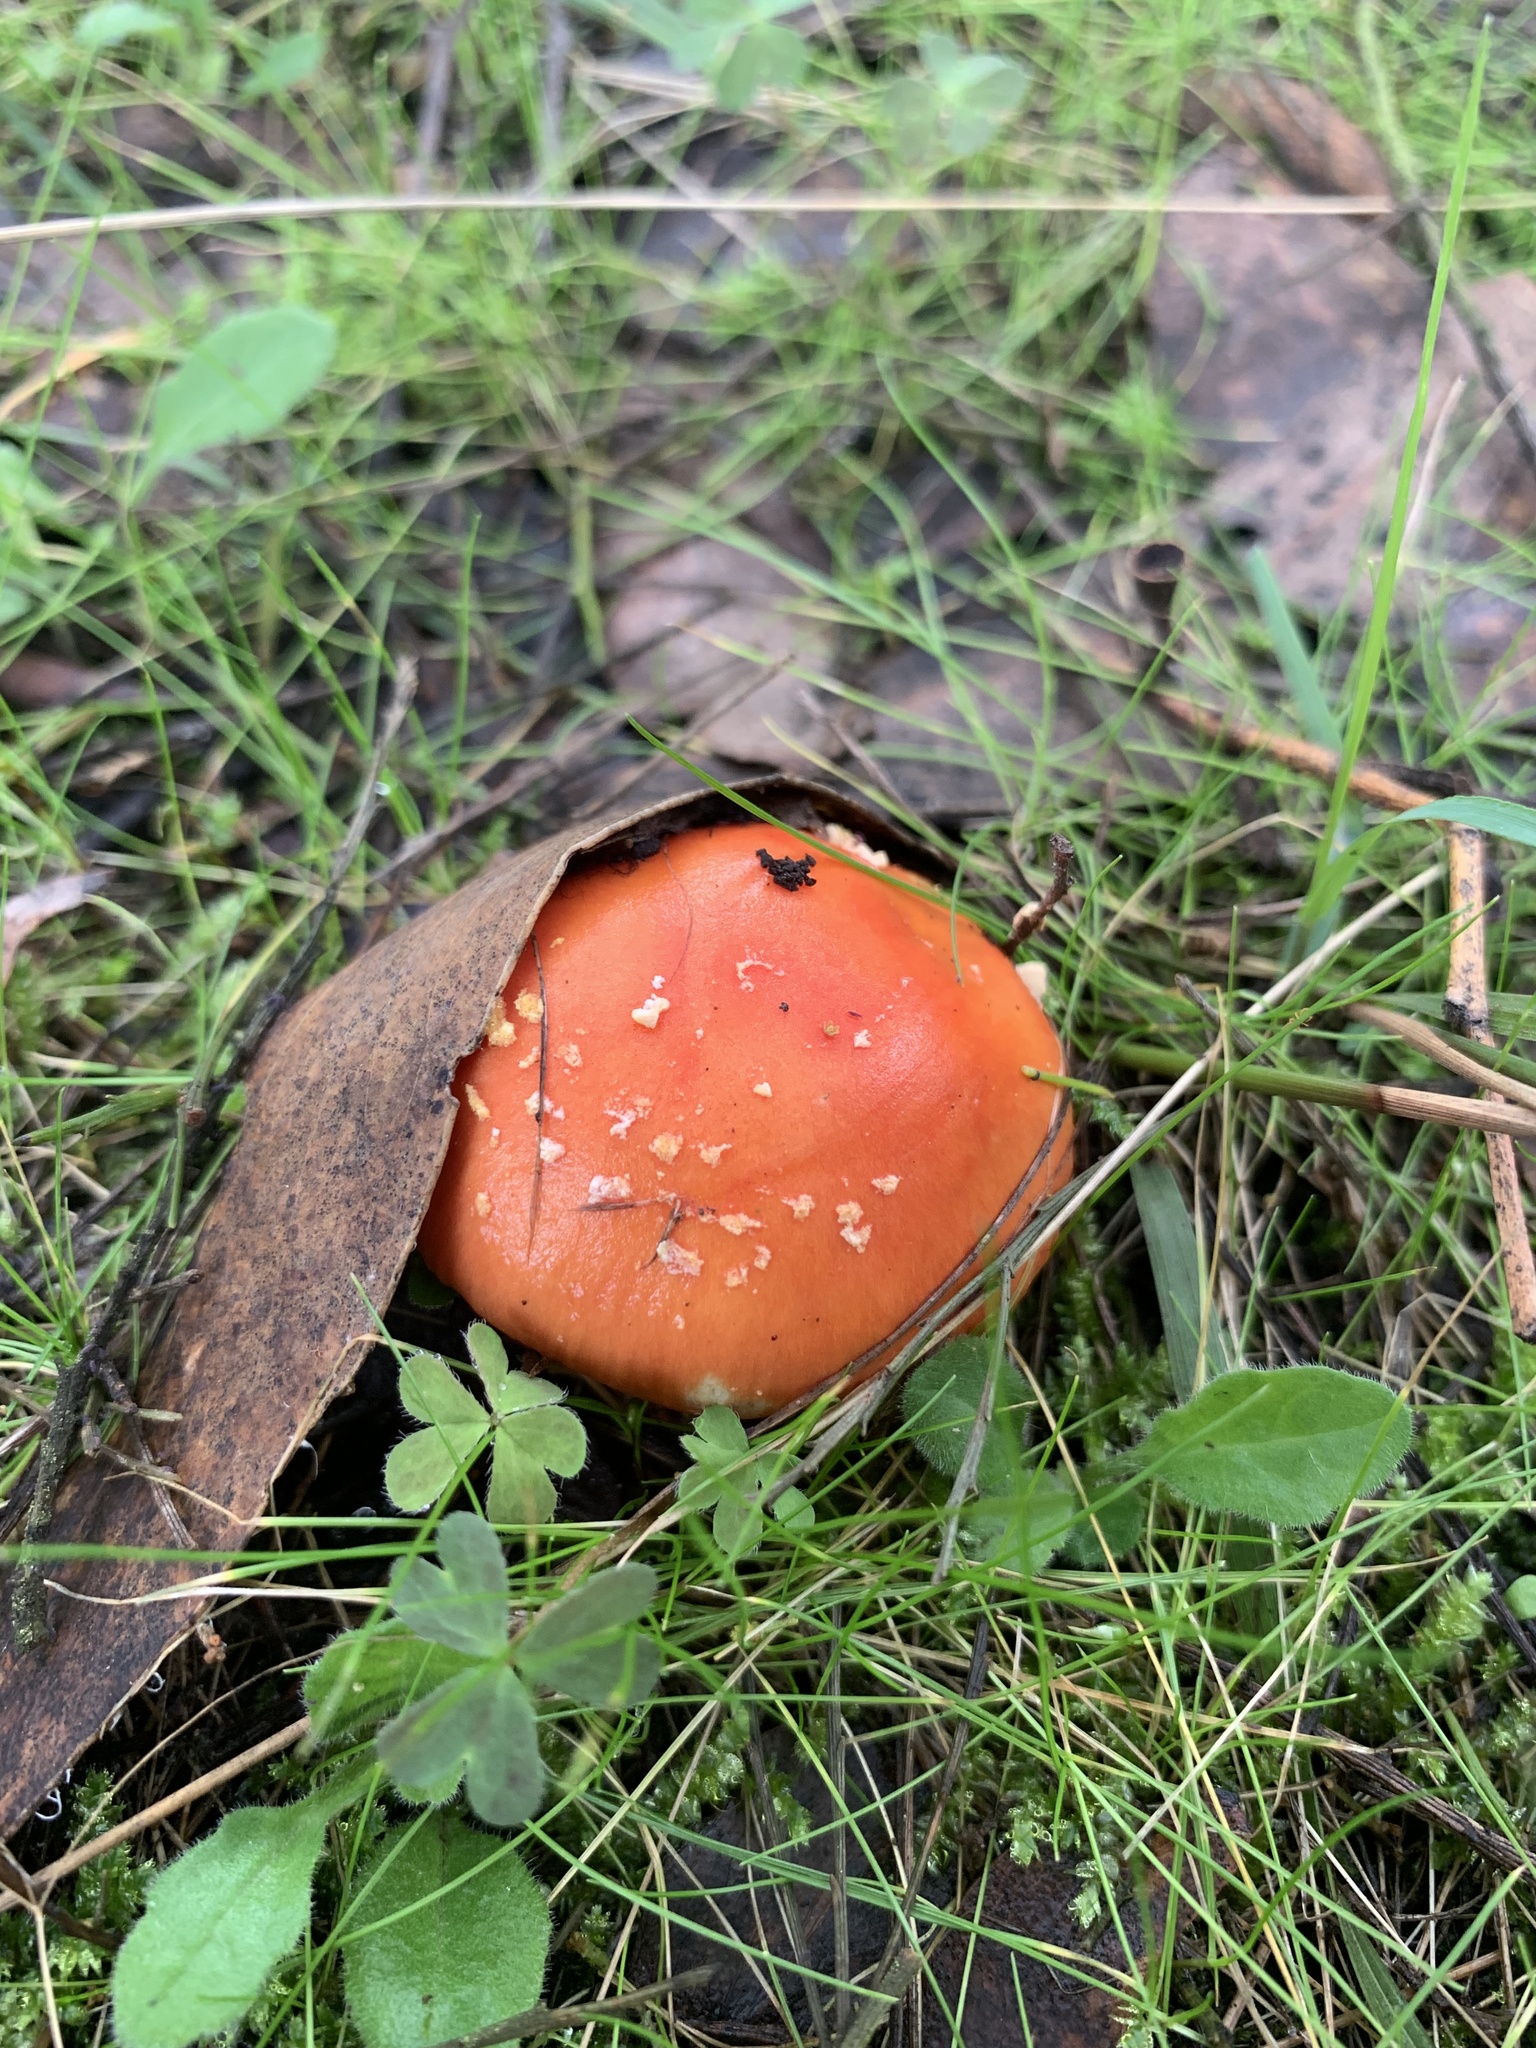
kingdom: Fungi
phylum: Basidiomycota
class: Agaricomycetes
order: Agaricales
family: Amanitaceae
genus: Amanita
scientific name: Amanita muscaria
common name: Fly agaric
